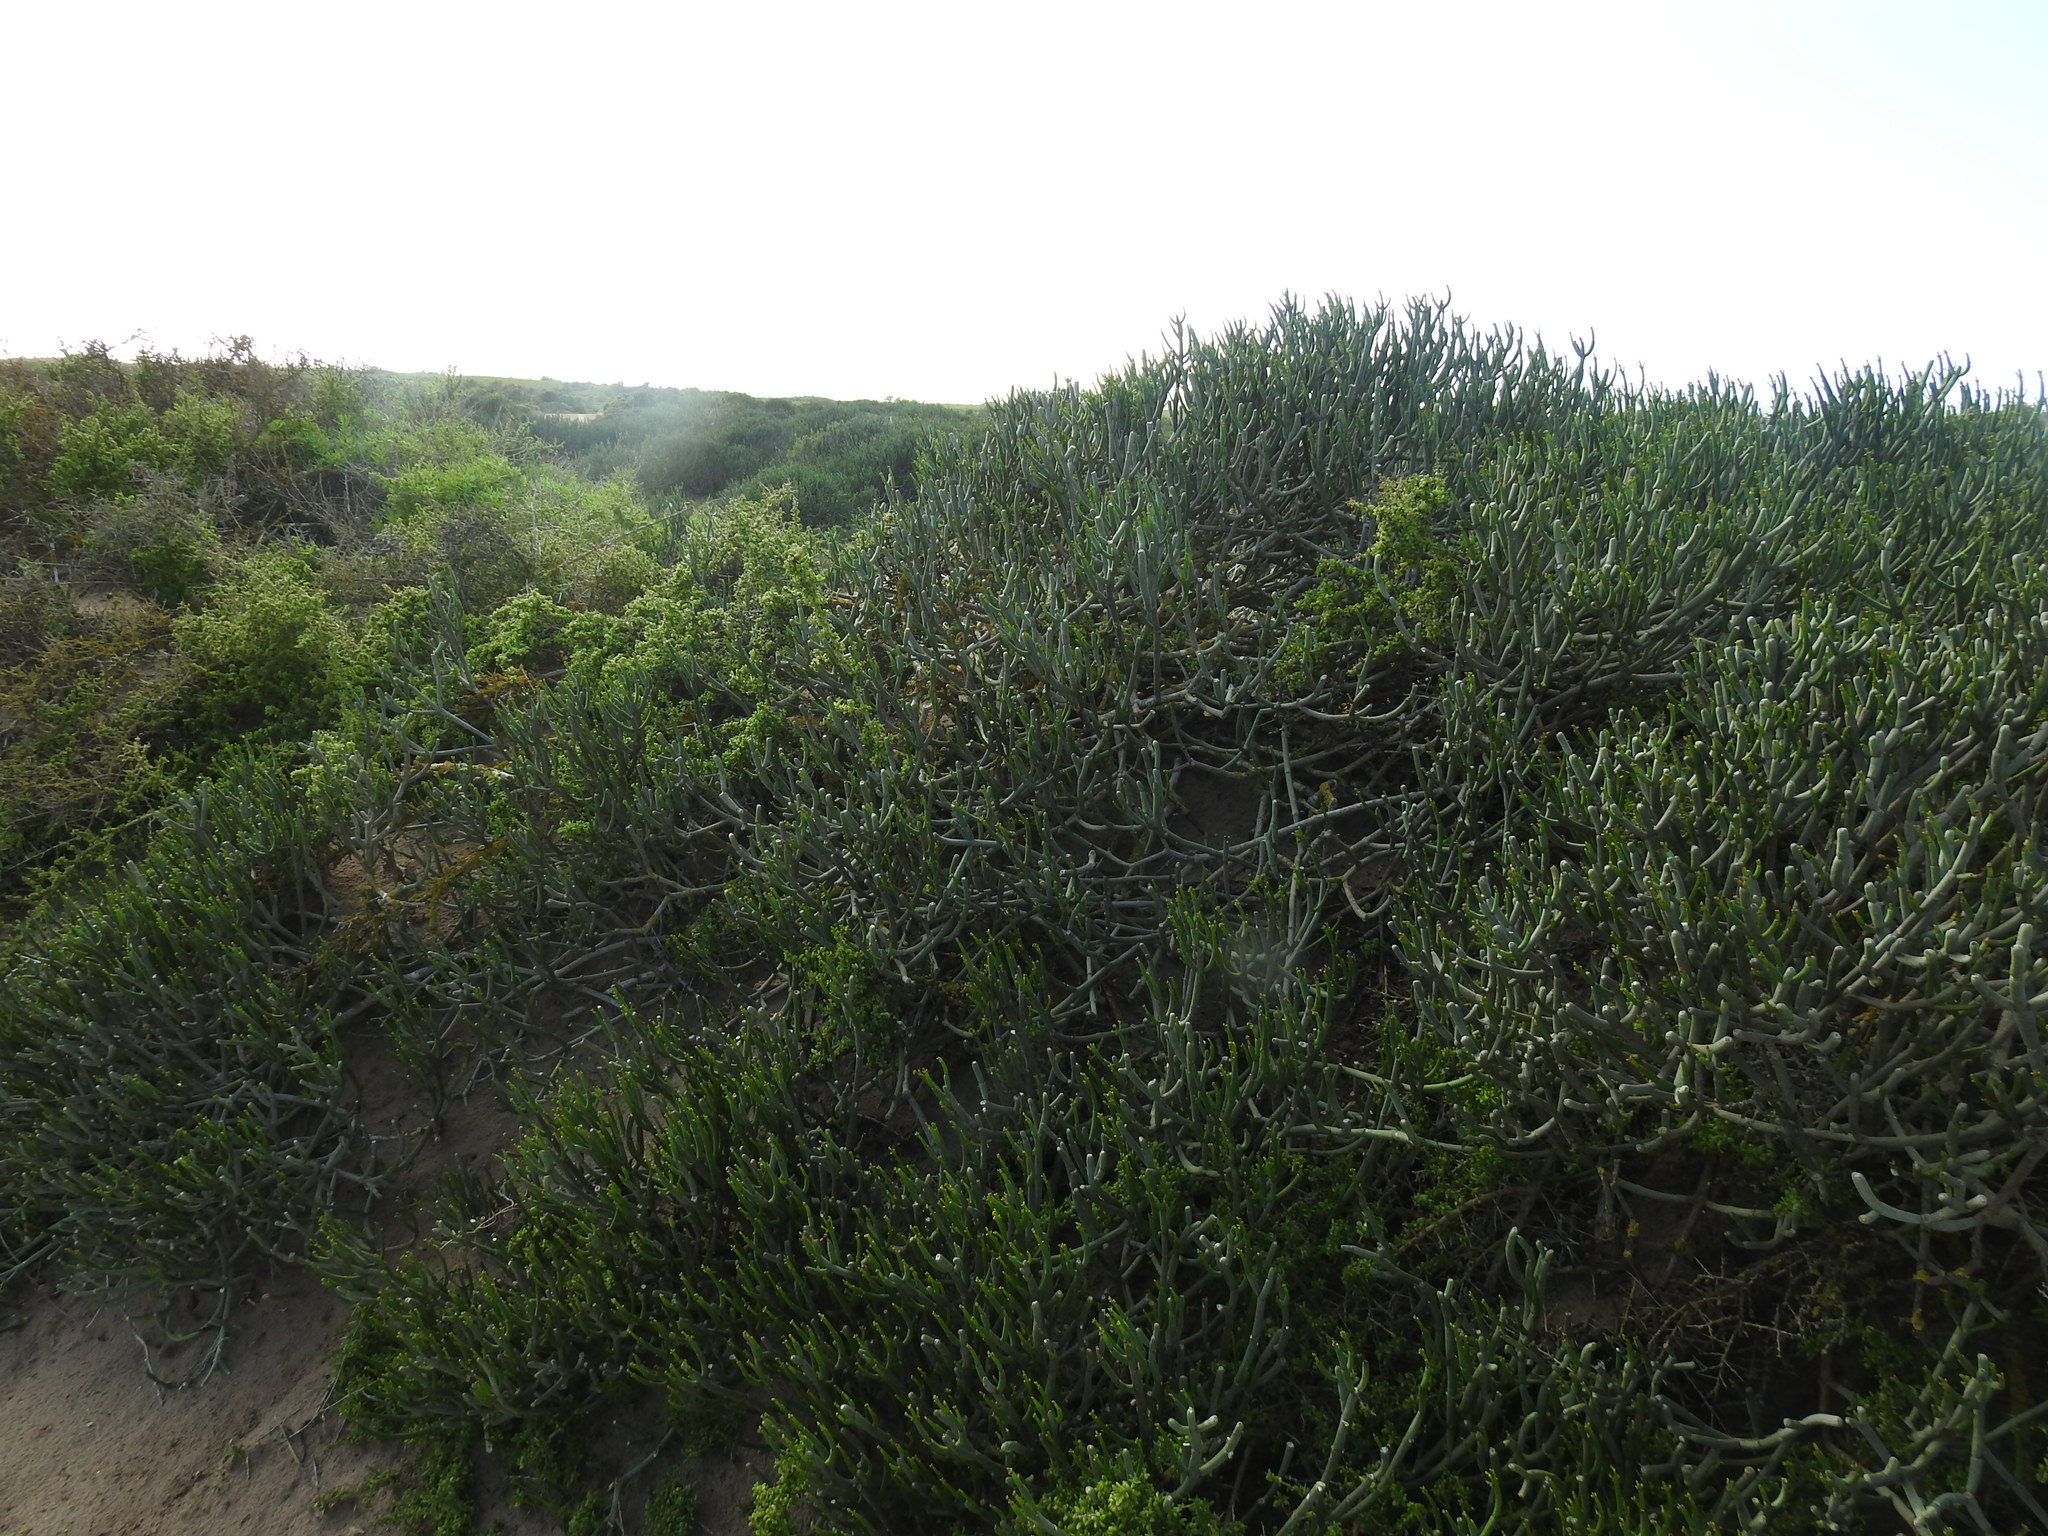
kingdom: Plantae
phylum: Tracheophyta
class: Magnoliopsida
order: Malpighiales
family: Euphorbiaceae
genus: Euphorbia
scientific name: Euphorbia burmanni
